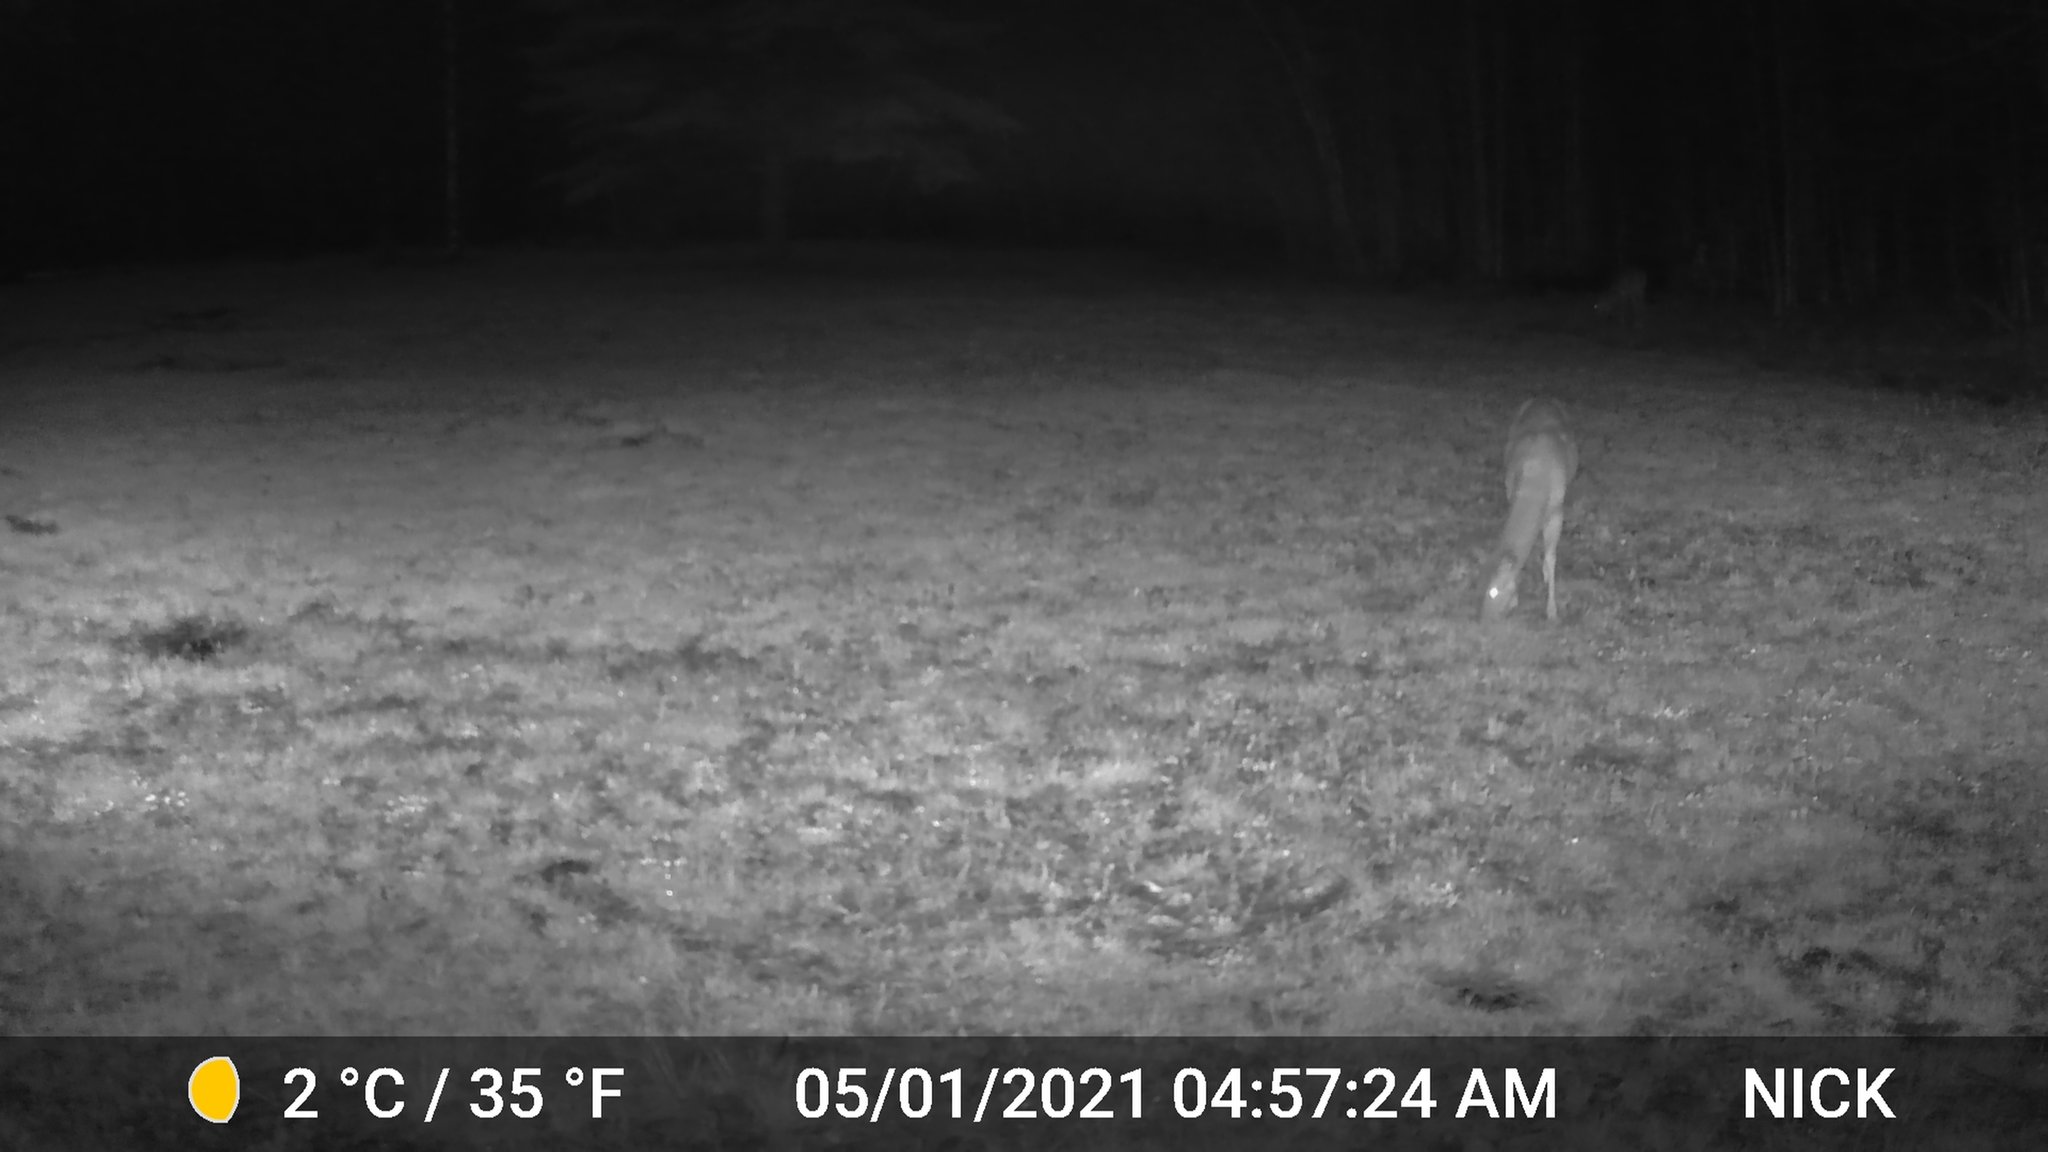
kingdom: Animalia
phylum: Chordata
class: Mammalia
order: Artiodactyla
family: Cervidae
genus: Odocoileus
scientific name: Odocoileus virginianus
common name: White-tailed deer
